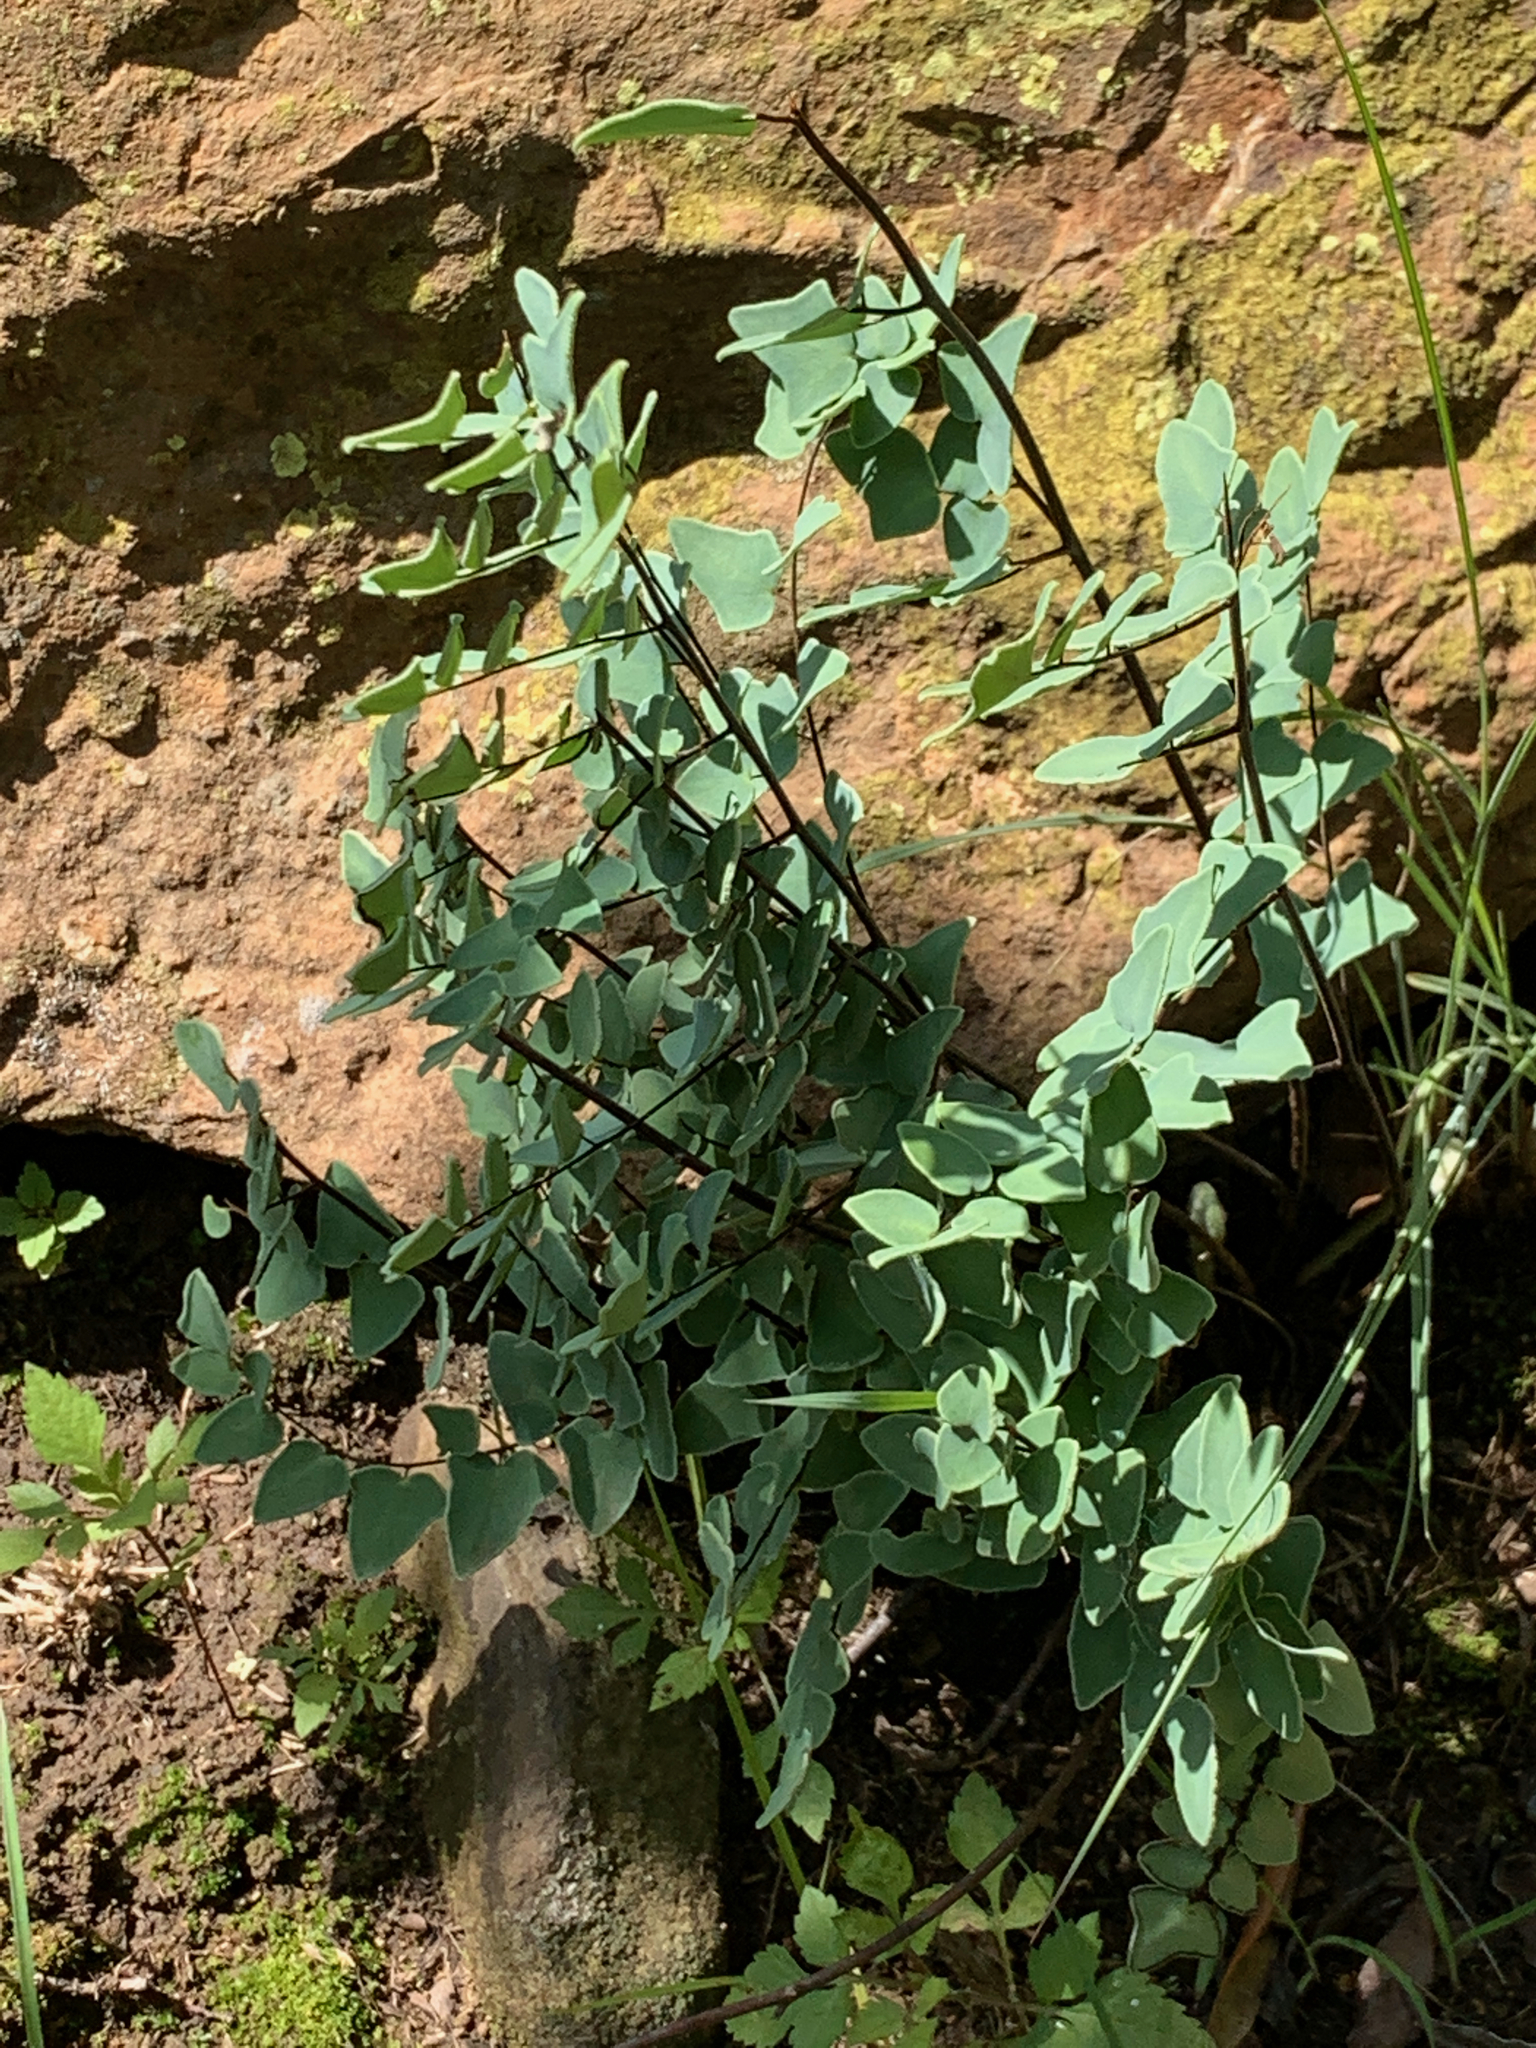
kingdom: Plantae
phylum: Tracheophyta
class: Polypodiopsida
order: Polypodiales
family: Pteridaceae
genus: Pellaea
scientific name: Pellaea calomelanos
